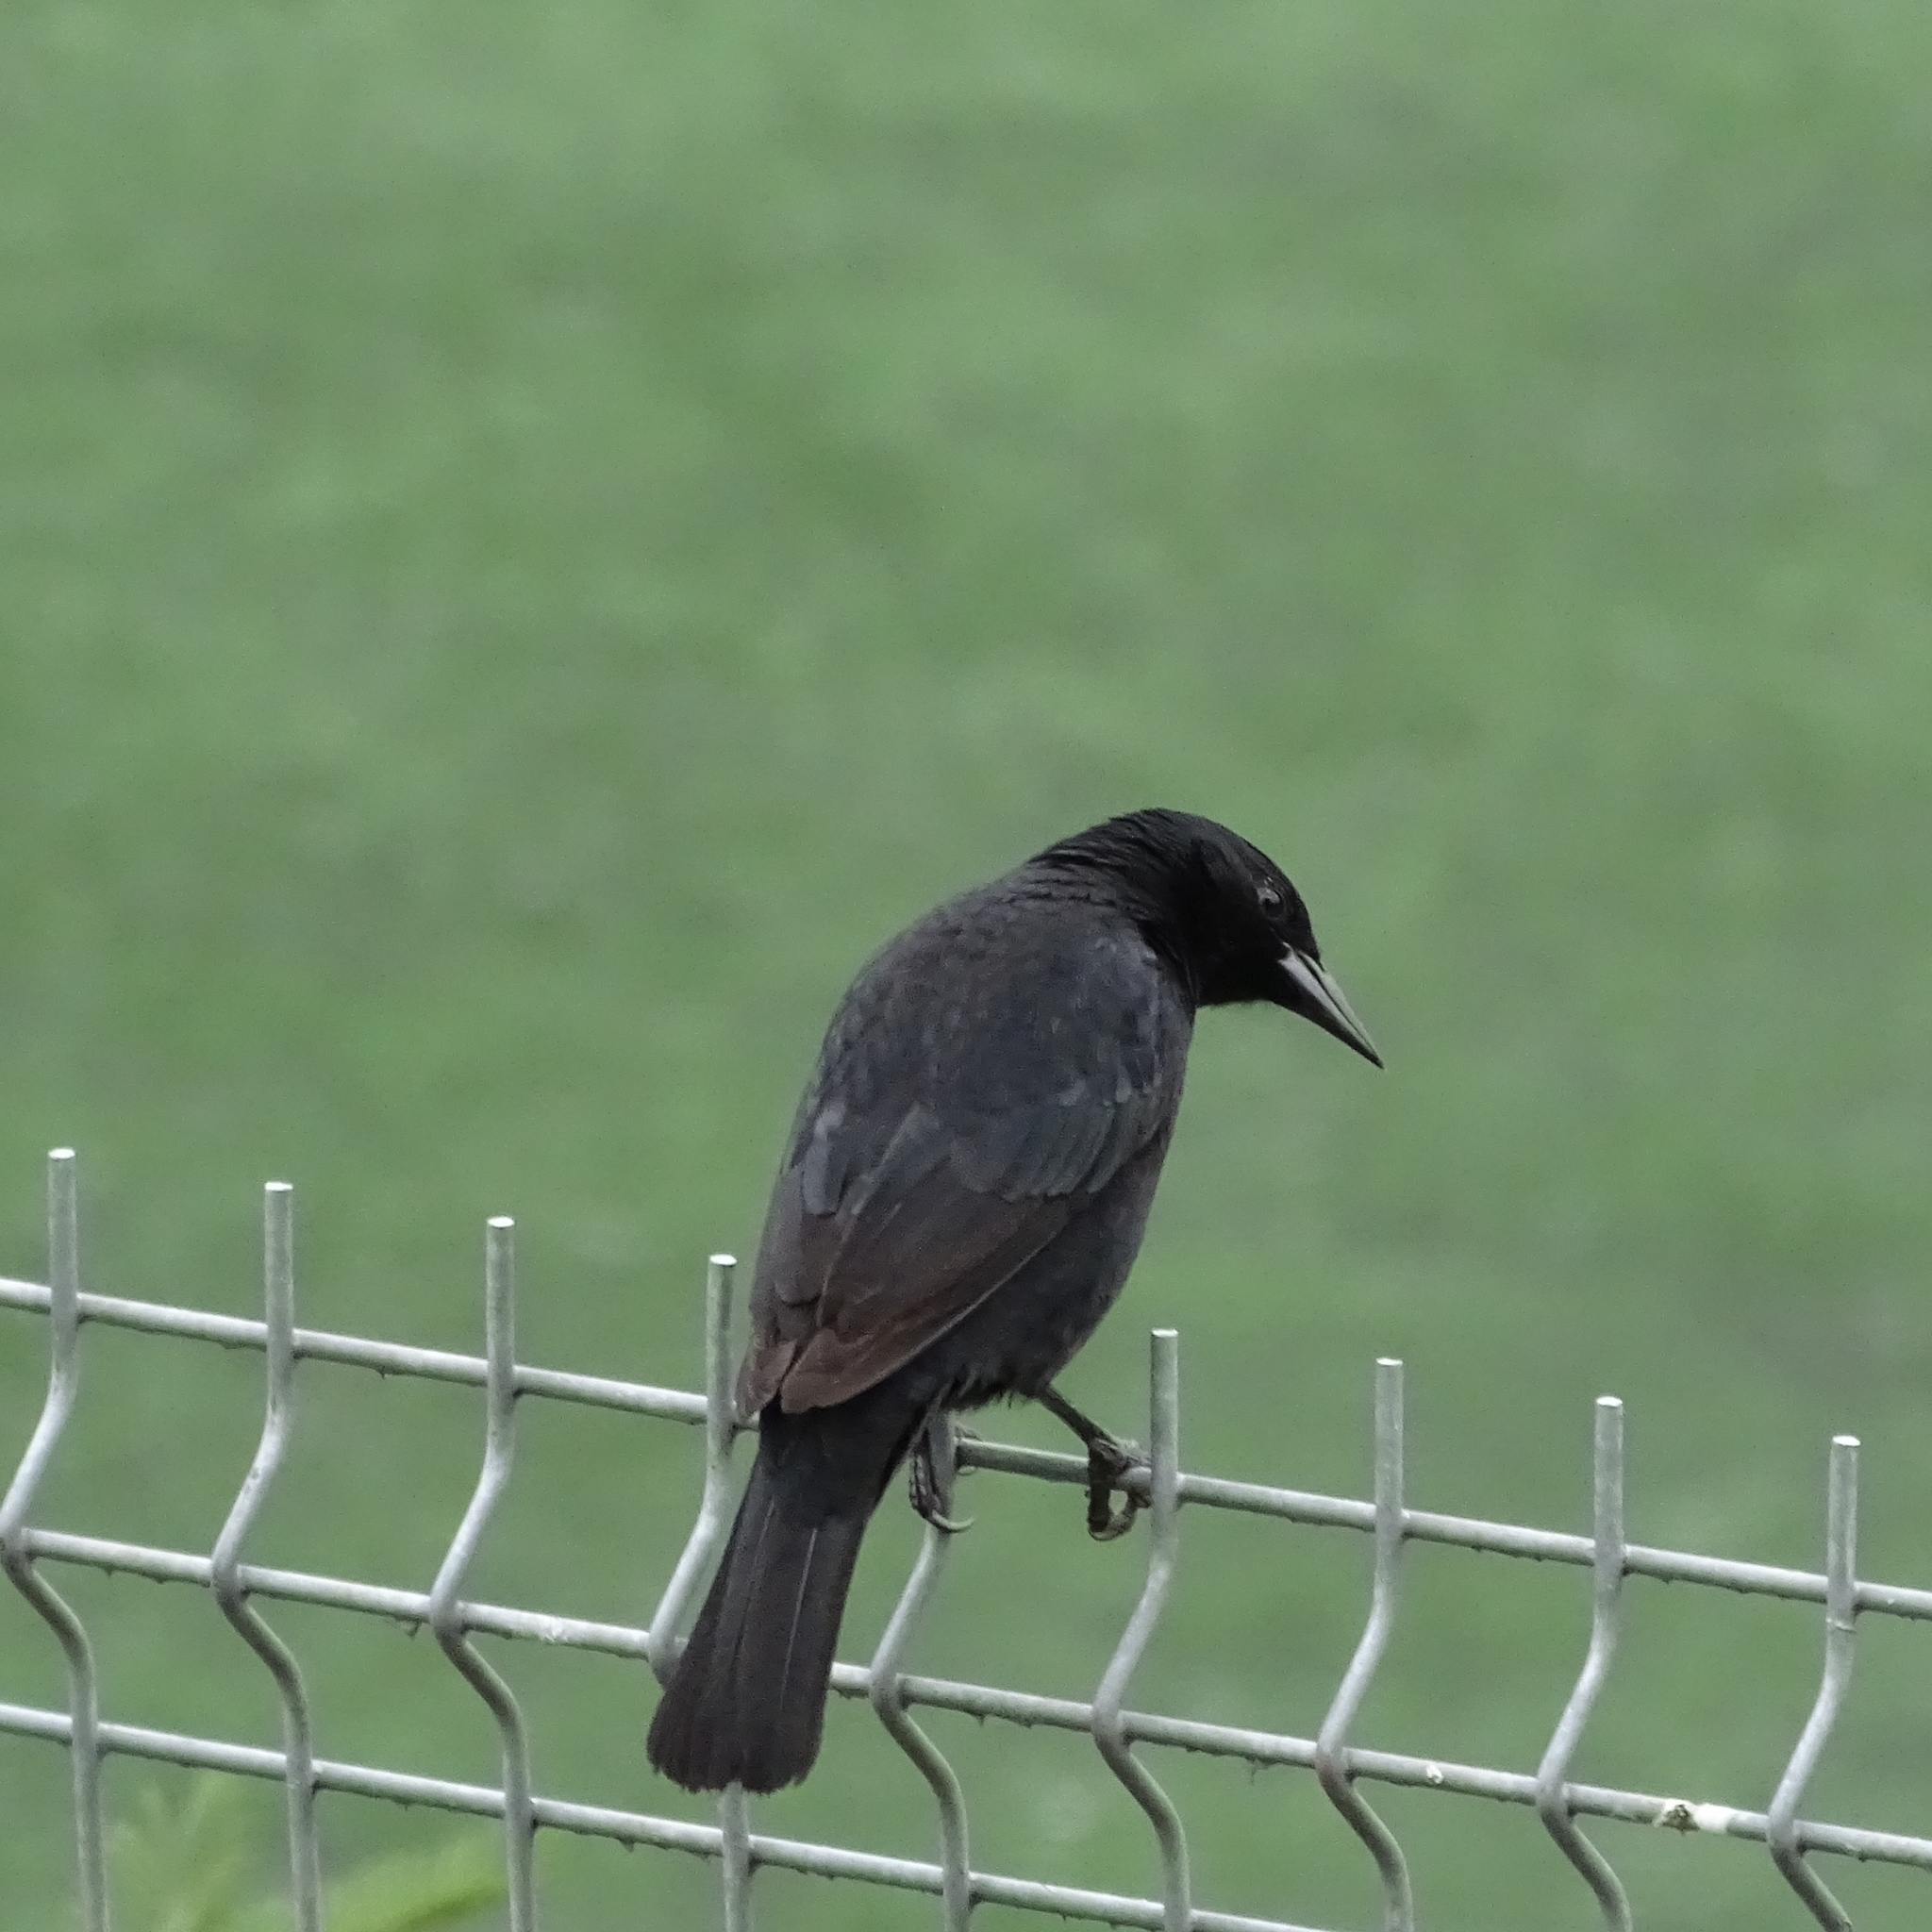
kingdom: Animalia
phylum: Chordata
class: Aves
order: Passeriformes
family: Icteridae
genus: Curaeus
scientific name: Curaeus curaeus
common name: Austral blackbird
